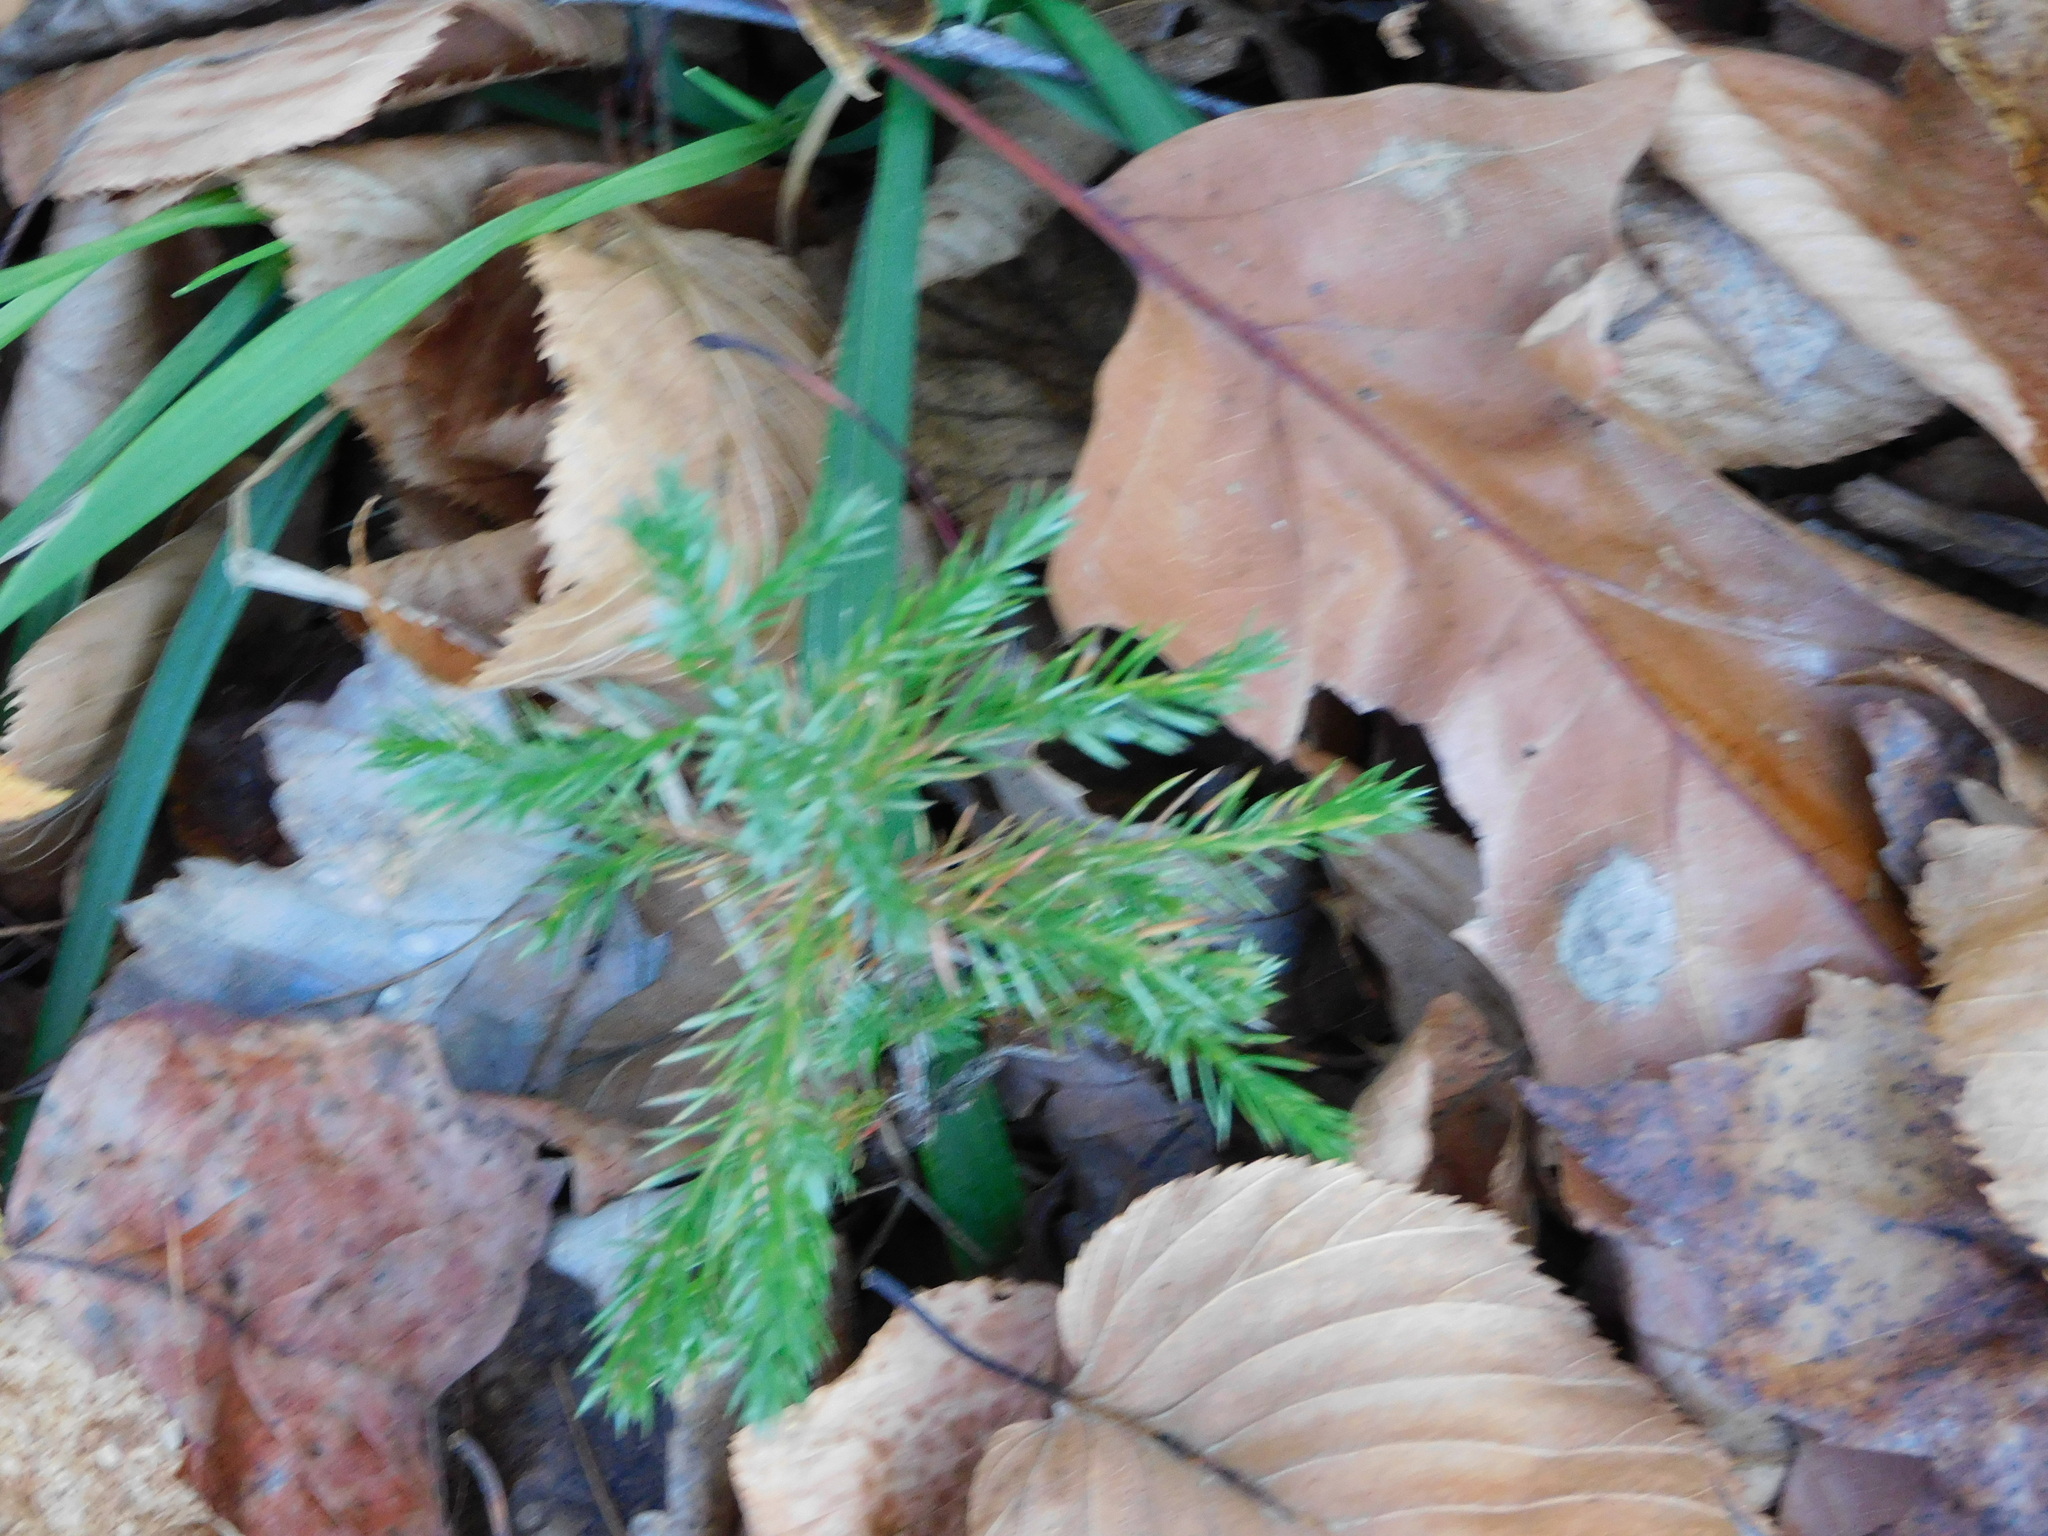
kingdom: Plantae
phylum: Tracheophyta
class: Pinopsida
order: Pinales
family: Cupressaceae
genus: Juniperus
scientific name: Juniperus virginiana
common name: Red juniper
